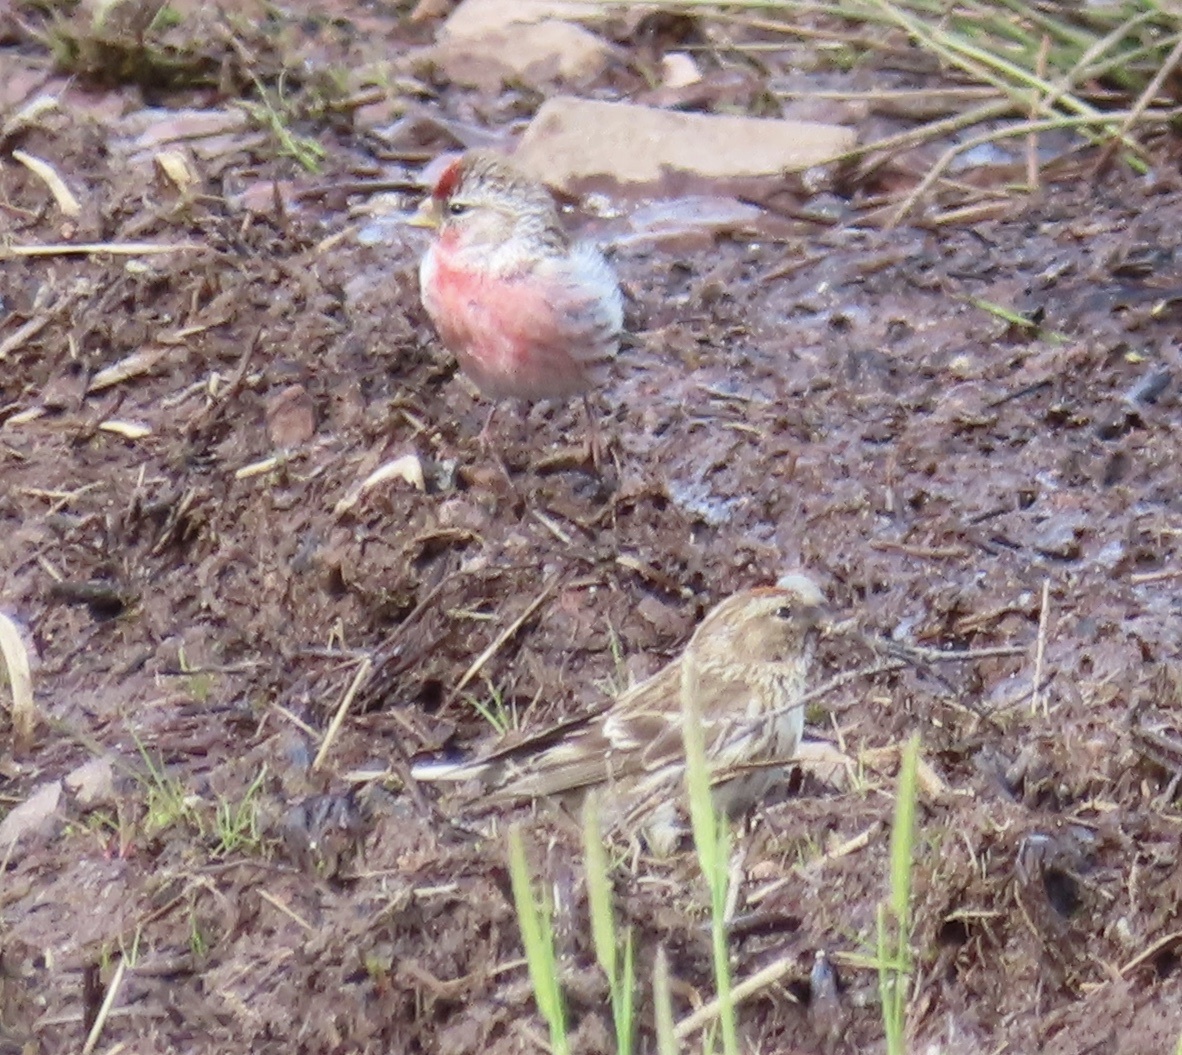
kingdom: Animalia
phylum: Chordata
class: Aves
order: Passeriformes
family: Fringillidae
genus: Acanthis
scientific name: Acanthis flammea
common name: Common redpoll
